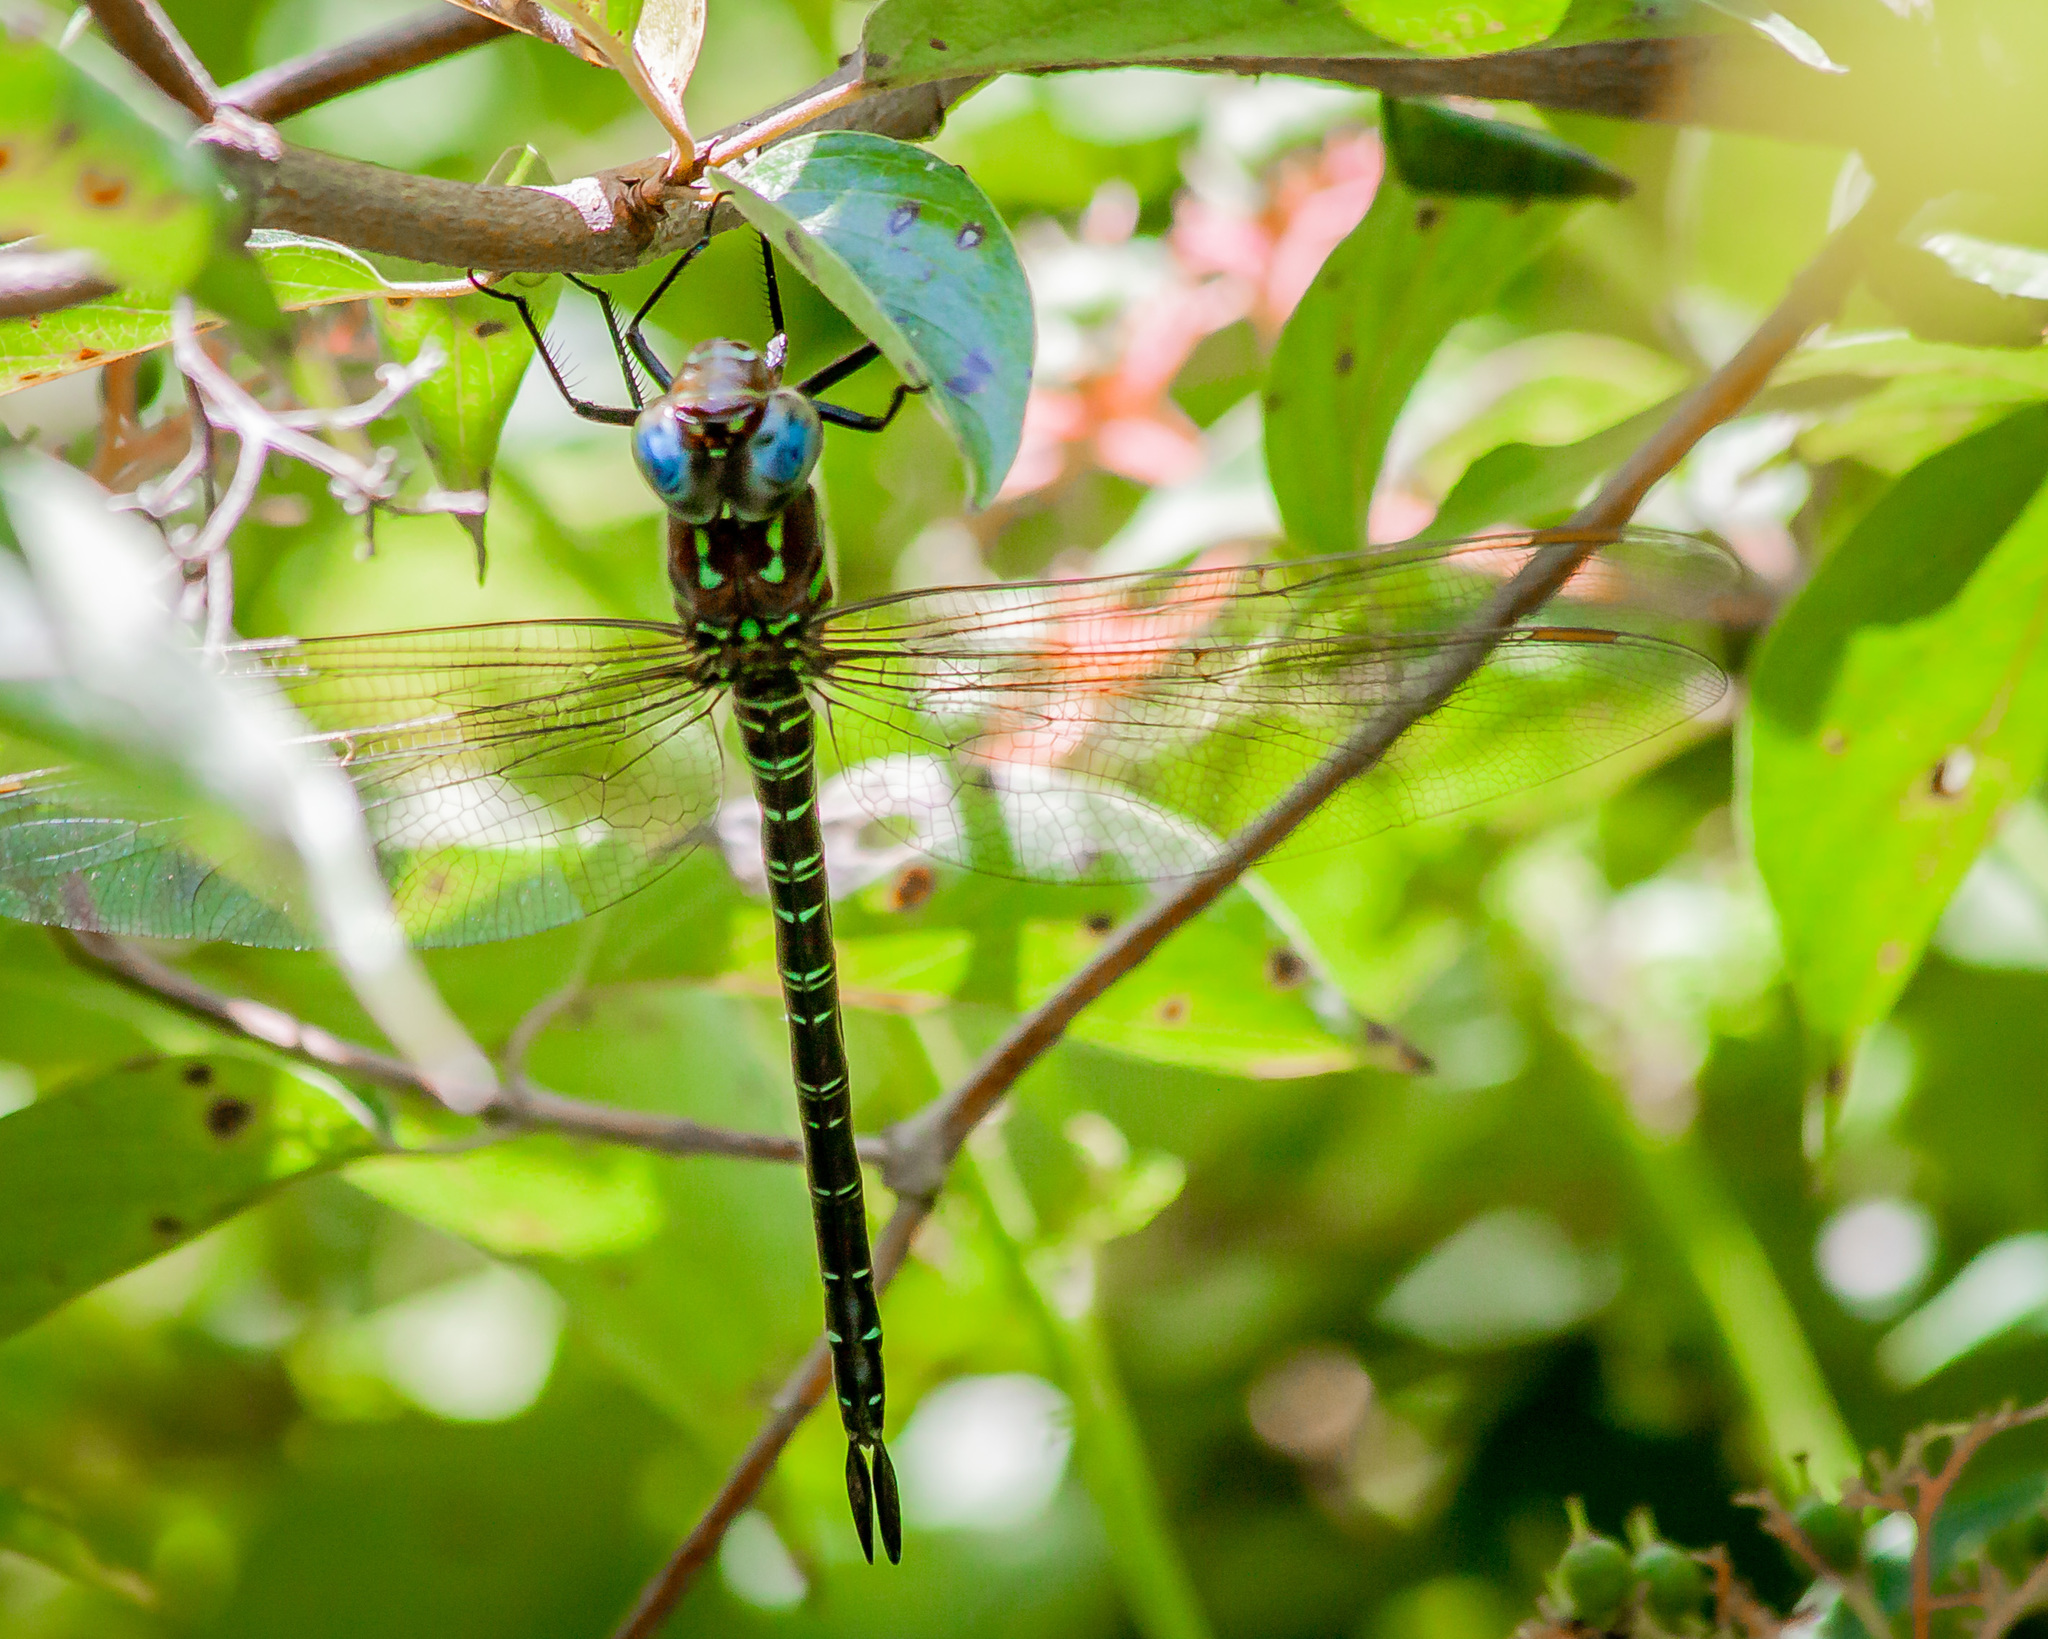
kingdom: Animalia
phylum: Arthropoda
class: Insecta
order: Odonata
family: Aeshnidae
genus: Epiaeschna
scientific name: Epiaeschna heros
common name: Swamp darner
